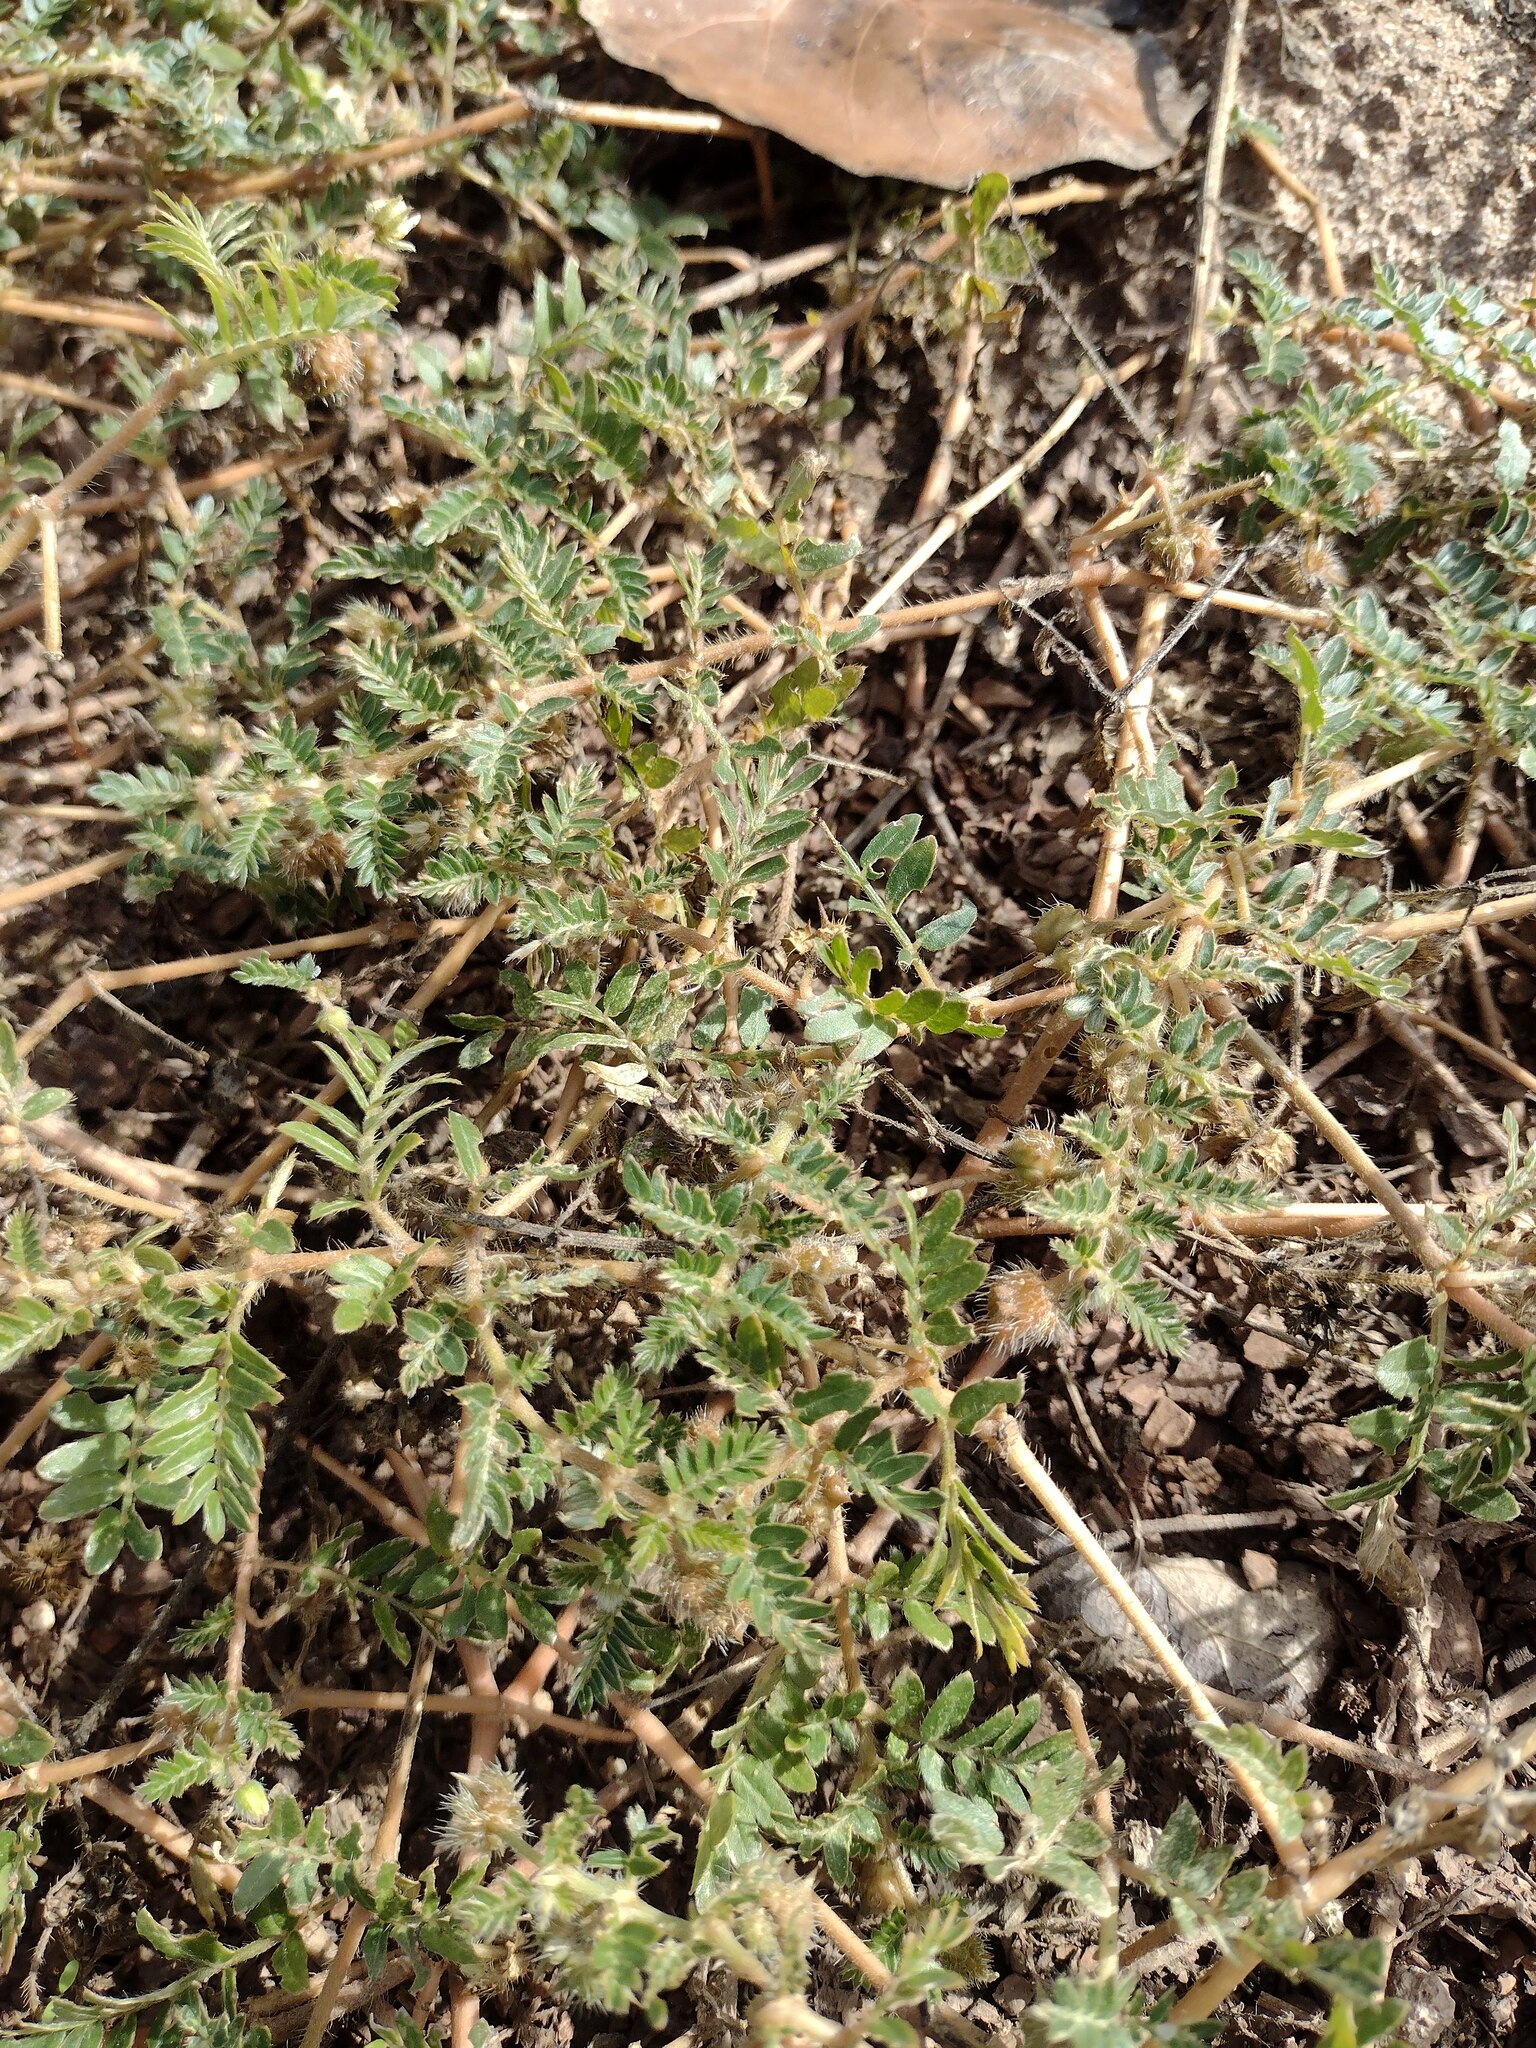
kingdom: Plantae
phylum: Tracheophyta
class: Magnoliopsida
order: Zygophyllales
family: Zygophyllaceae
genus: Tribulus
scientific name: Tribulus terrestris
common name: Puncturevine
